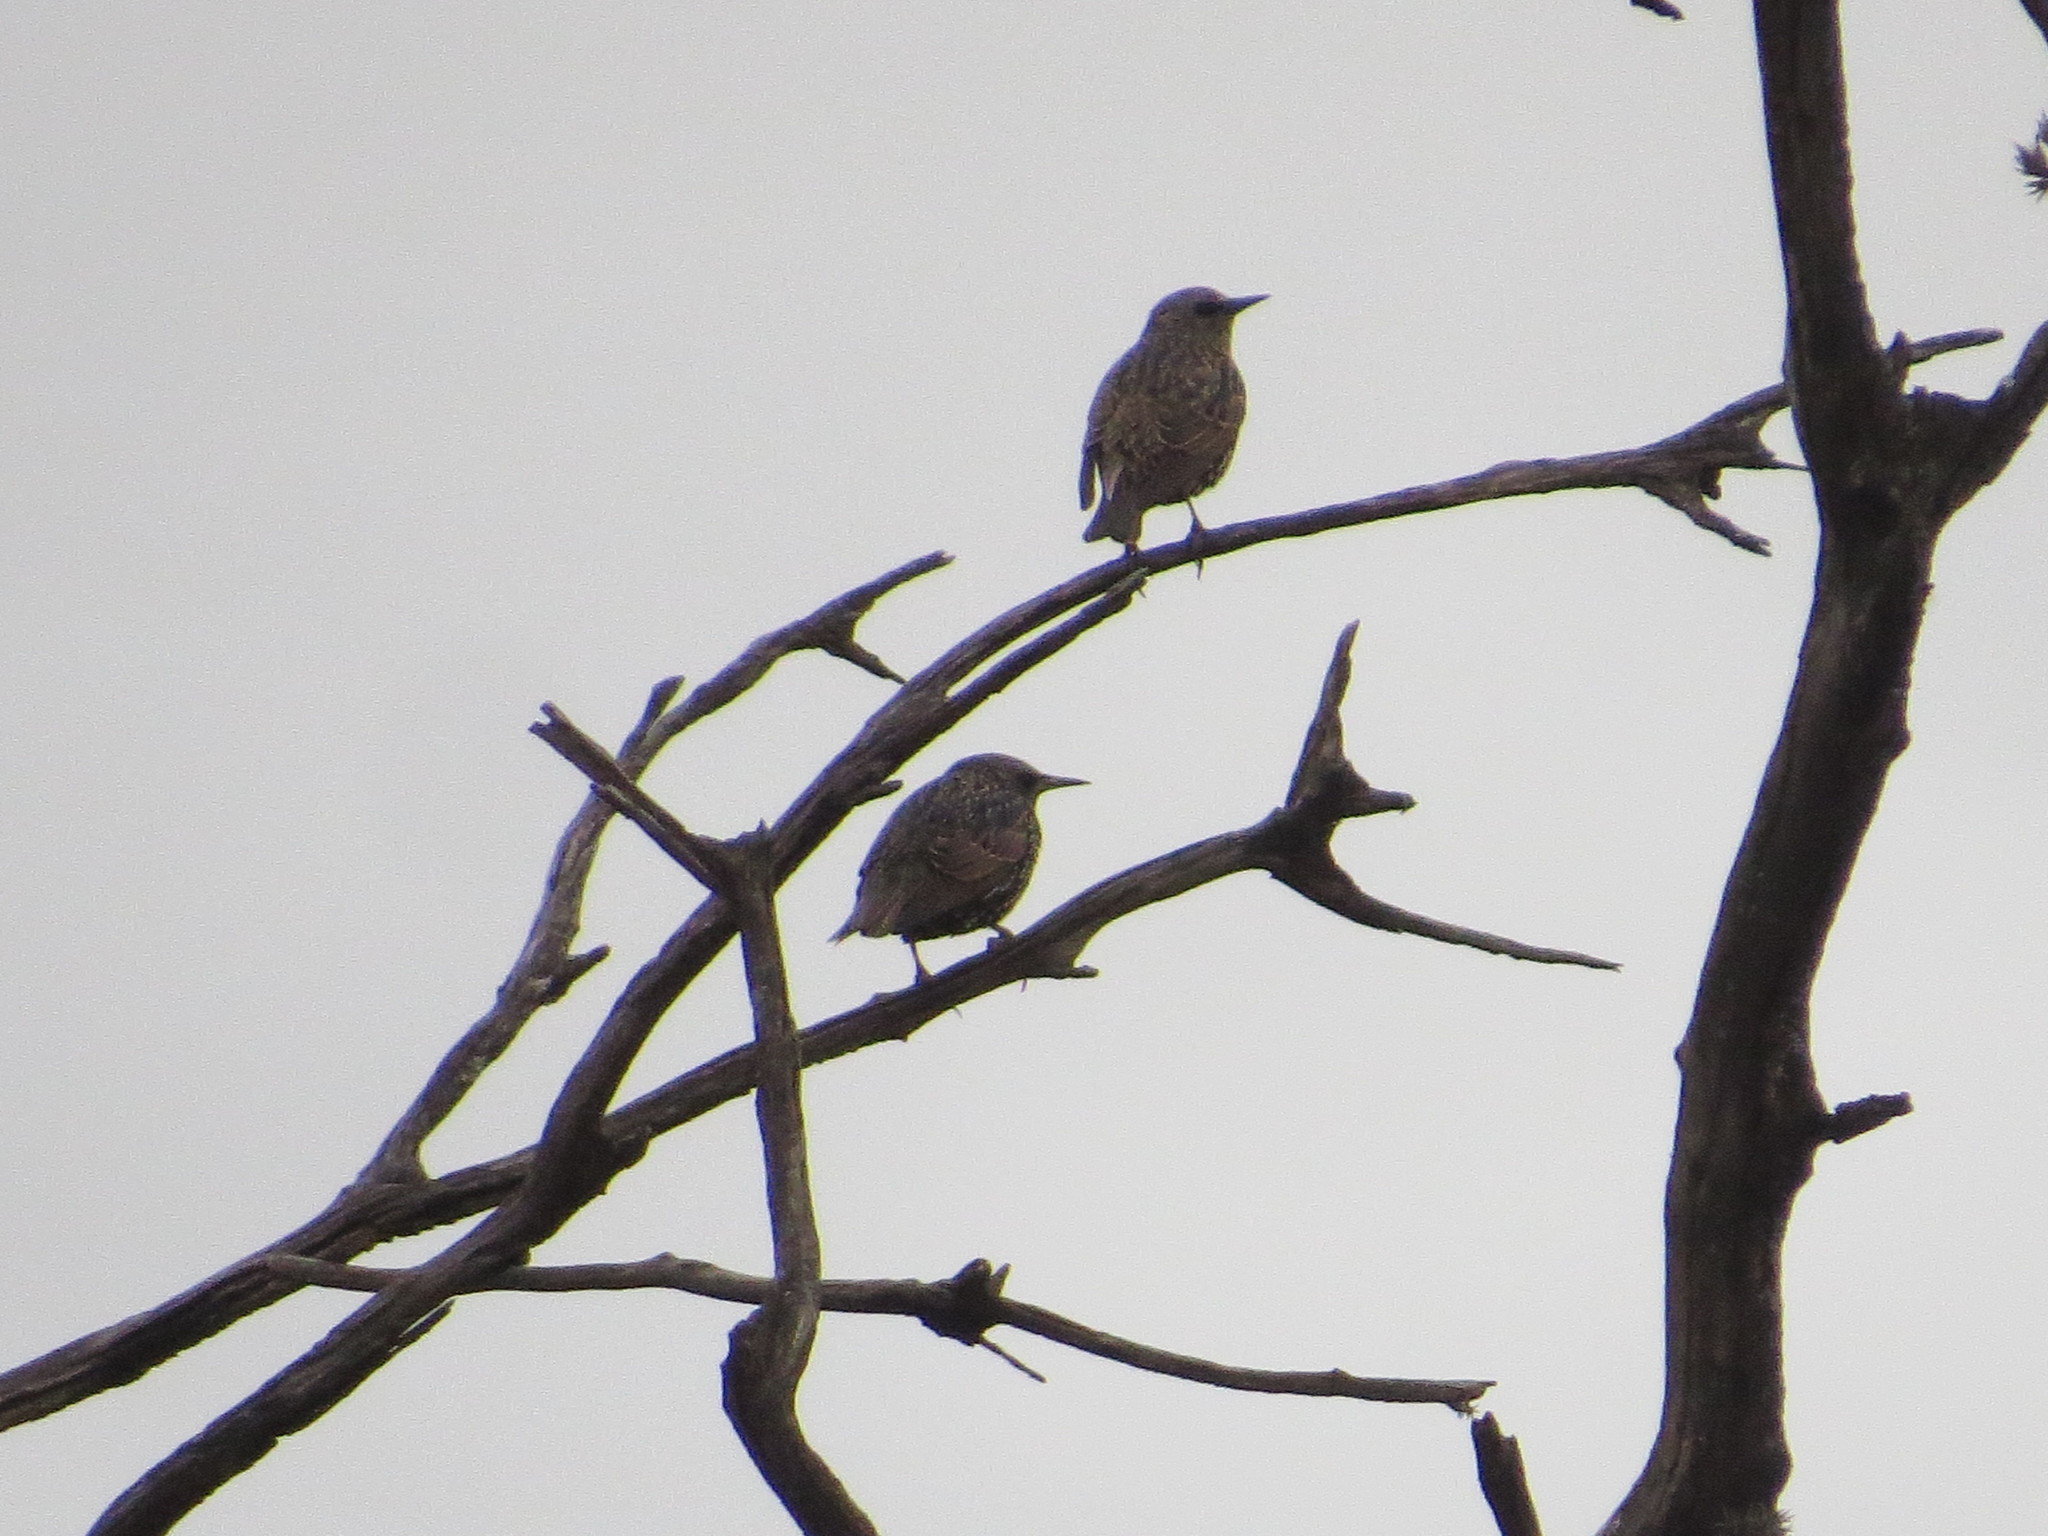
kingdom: Animalia
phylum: Chordata
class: Aves
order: Passeriformes
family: Sturnidae
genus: Sturnus
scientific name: Sturnus vulgaris
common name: Common starling
